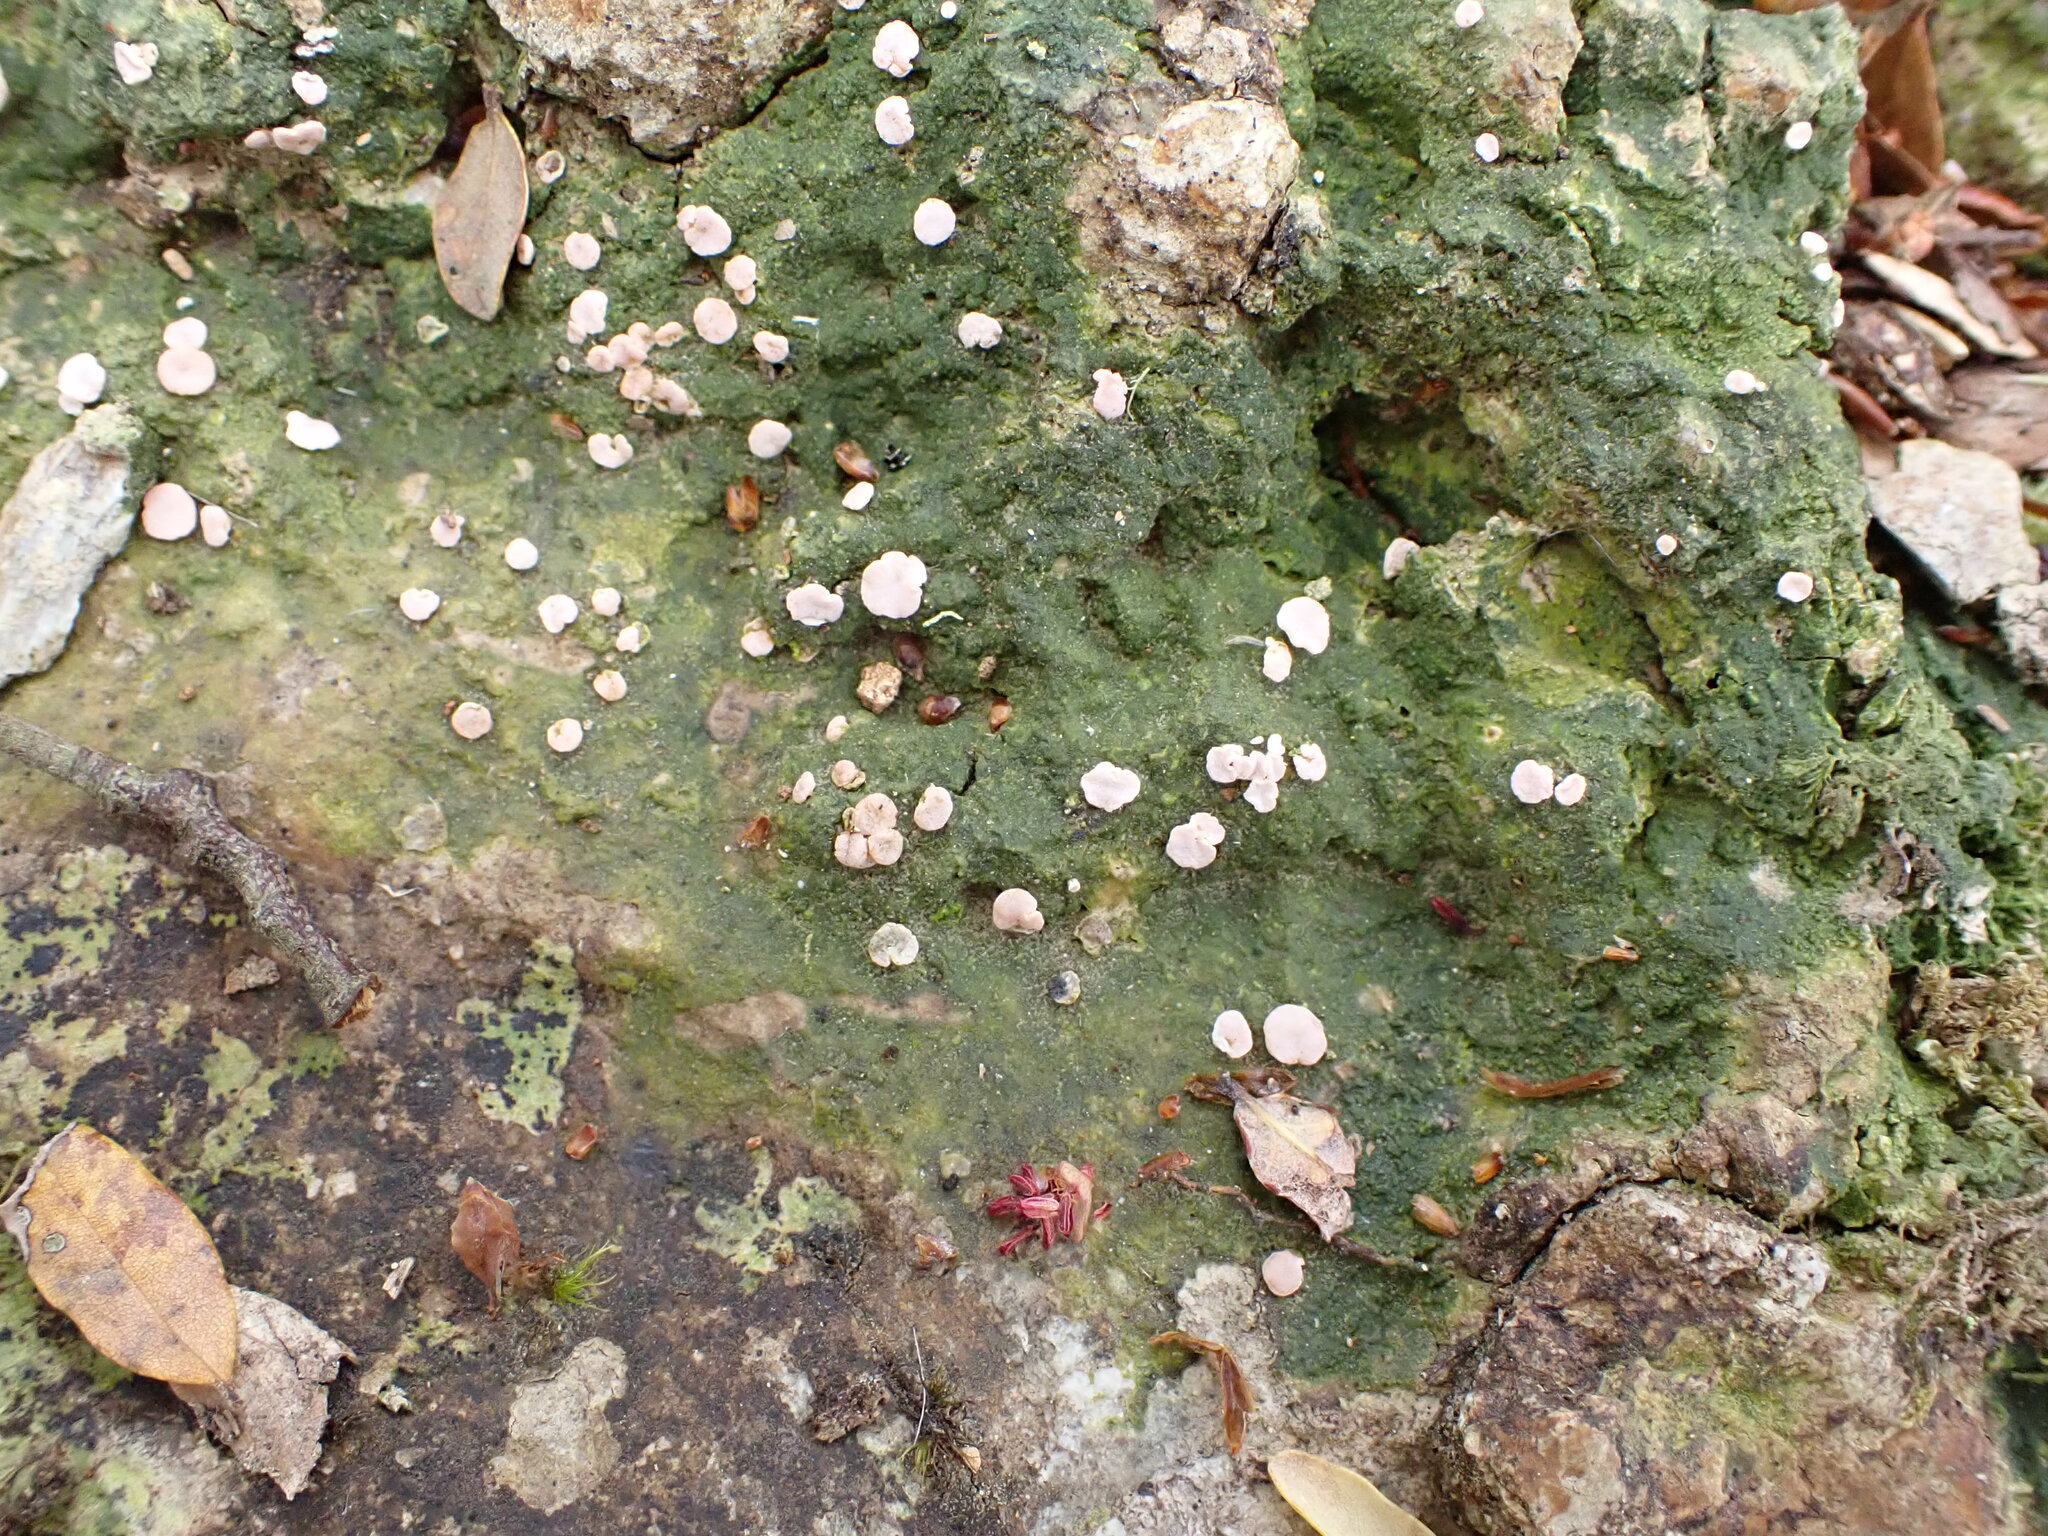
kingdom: Fungi
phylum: Ascomycota
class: Lecanoromycetes
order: Pertusariales
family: Icmadophilaceae
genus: Dibaeis
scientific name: Dibaeis absoluta
